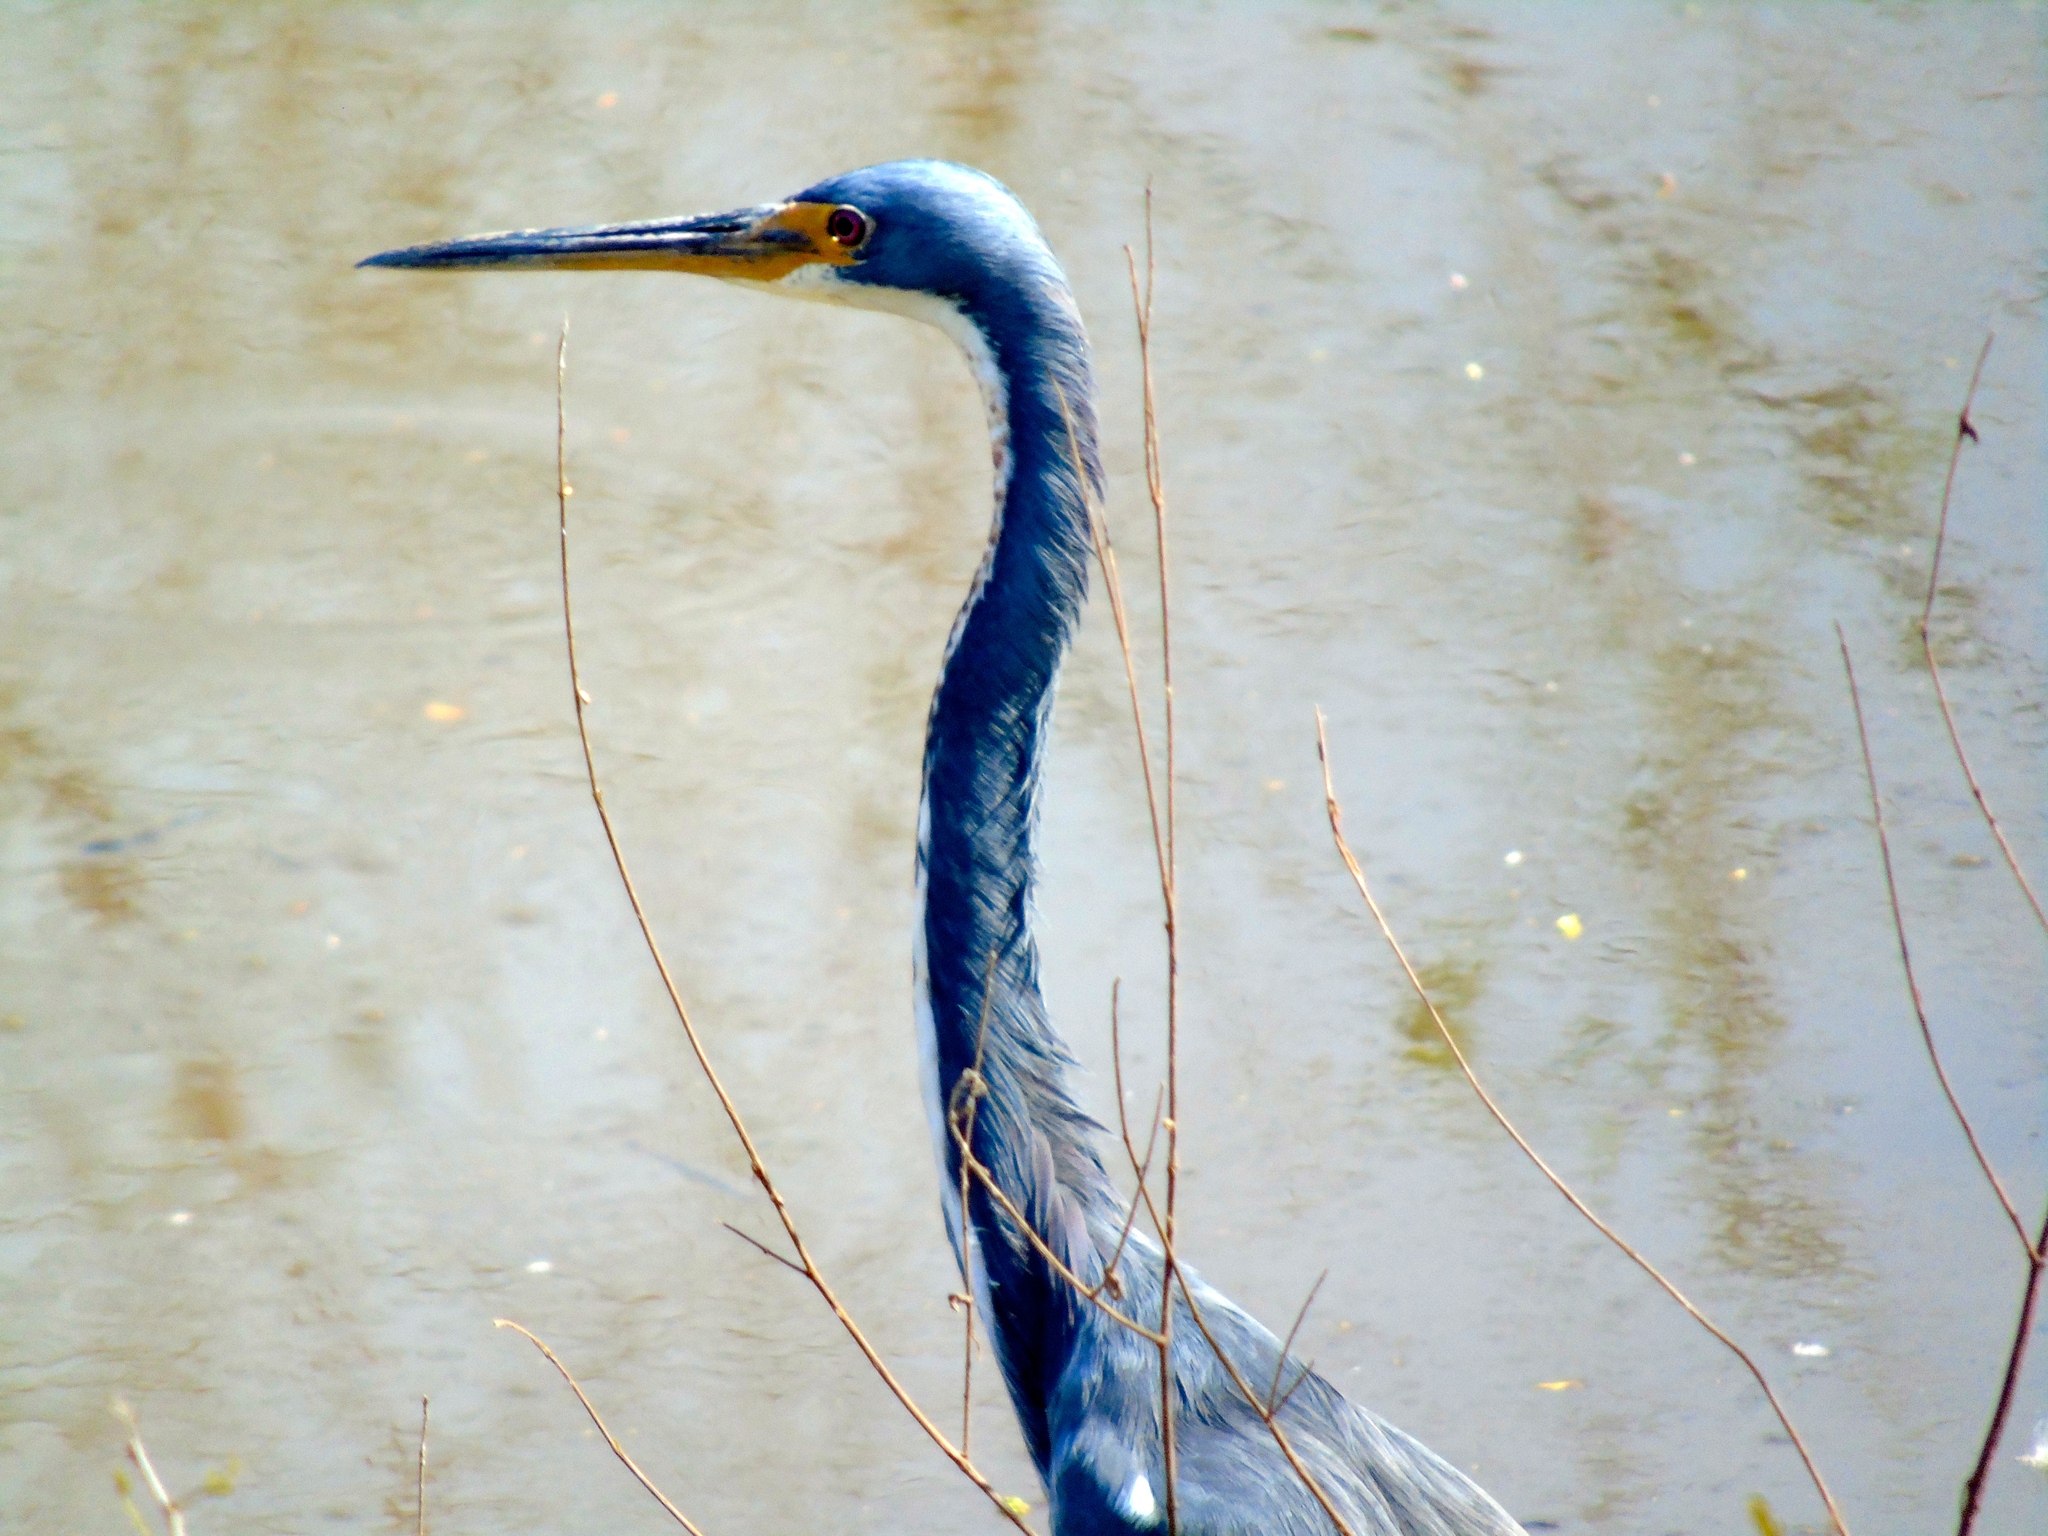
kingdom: Animalia
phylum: Chordata
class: Aves
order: Pelecaniformes
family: Ardeidae
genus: Egretta
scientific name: Egretta tricolor
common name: Tricolored heron
